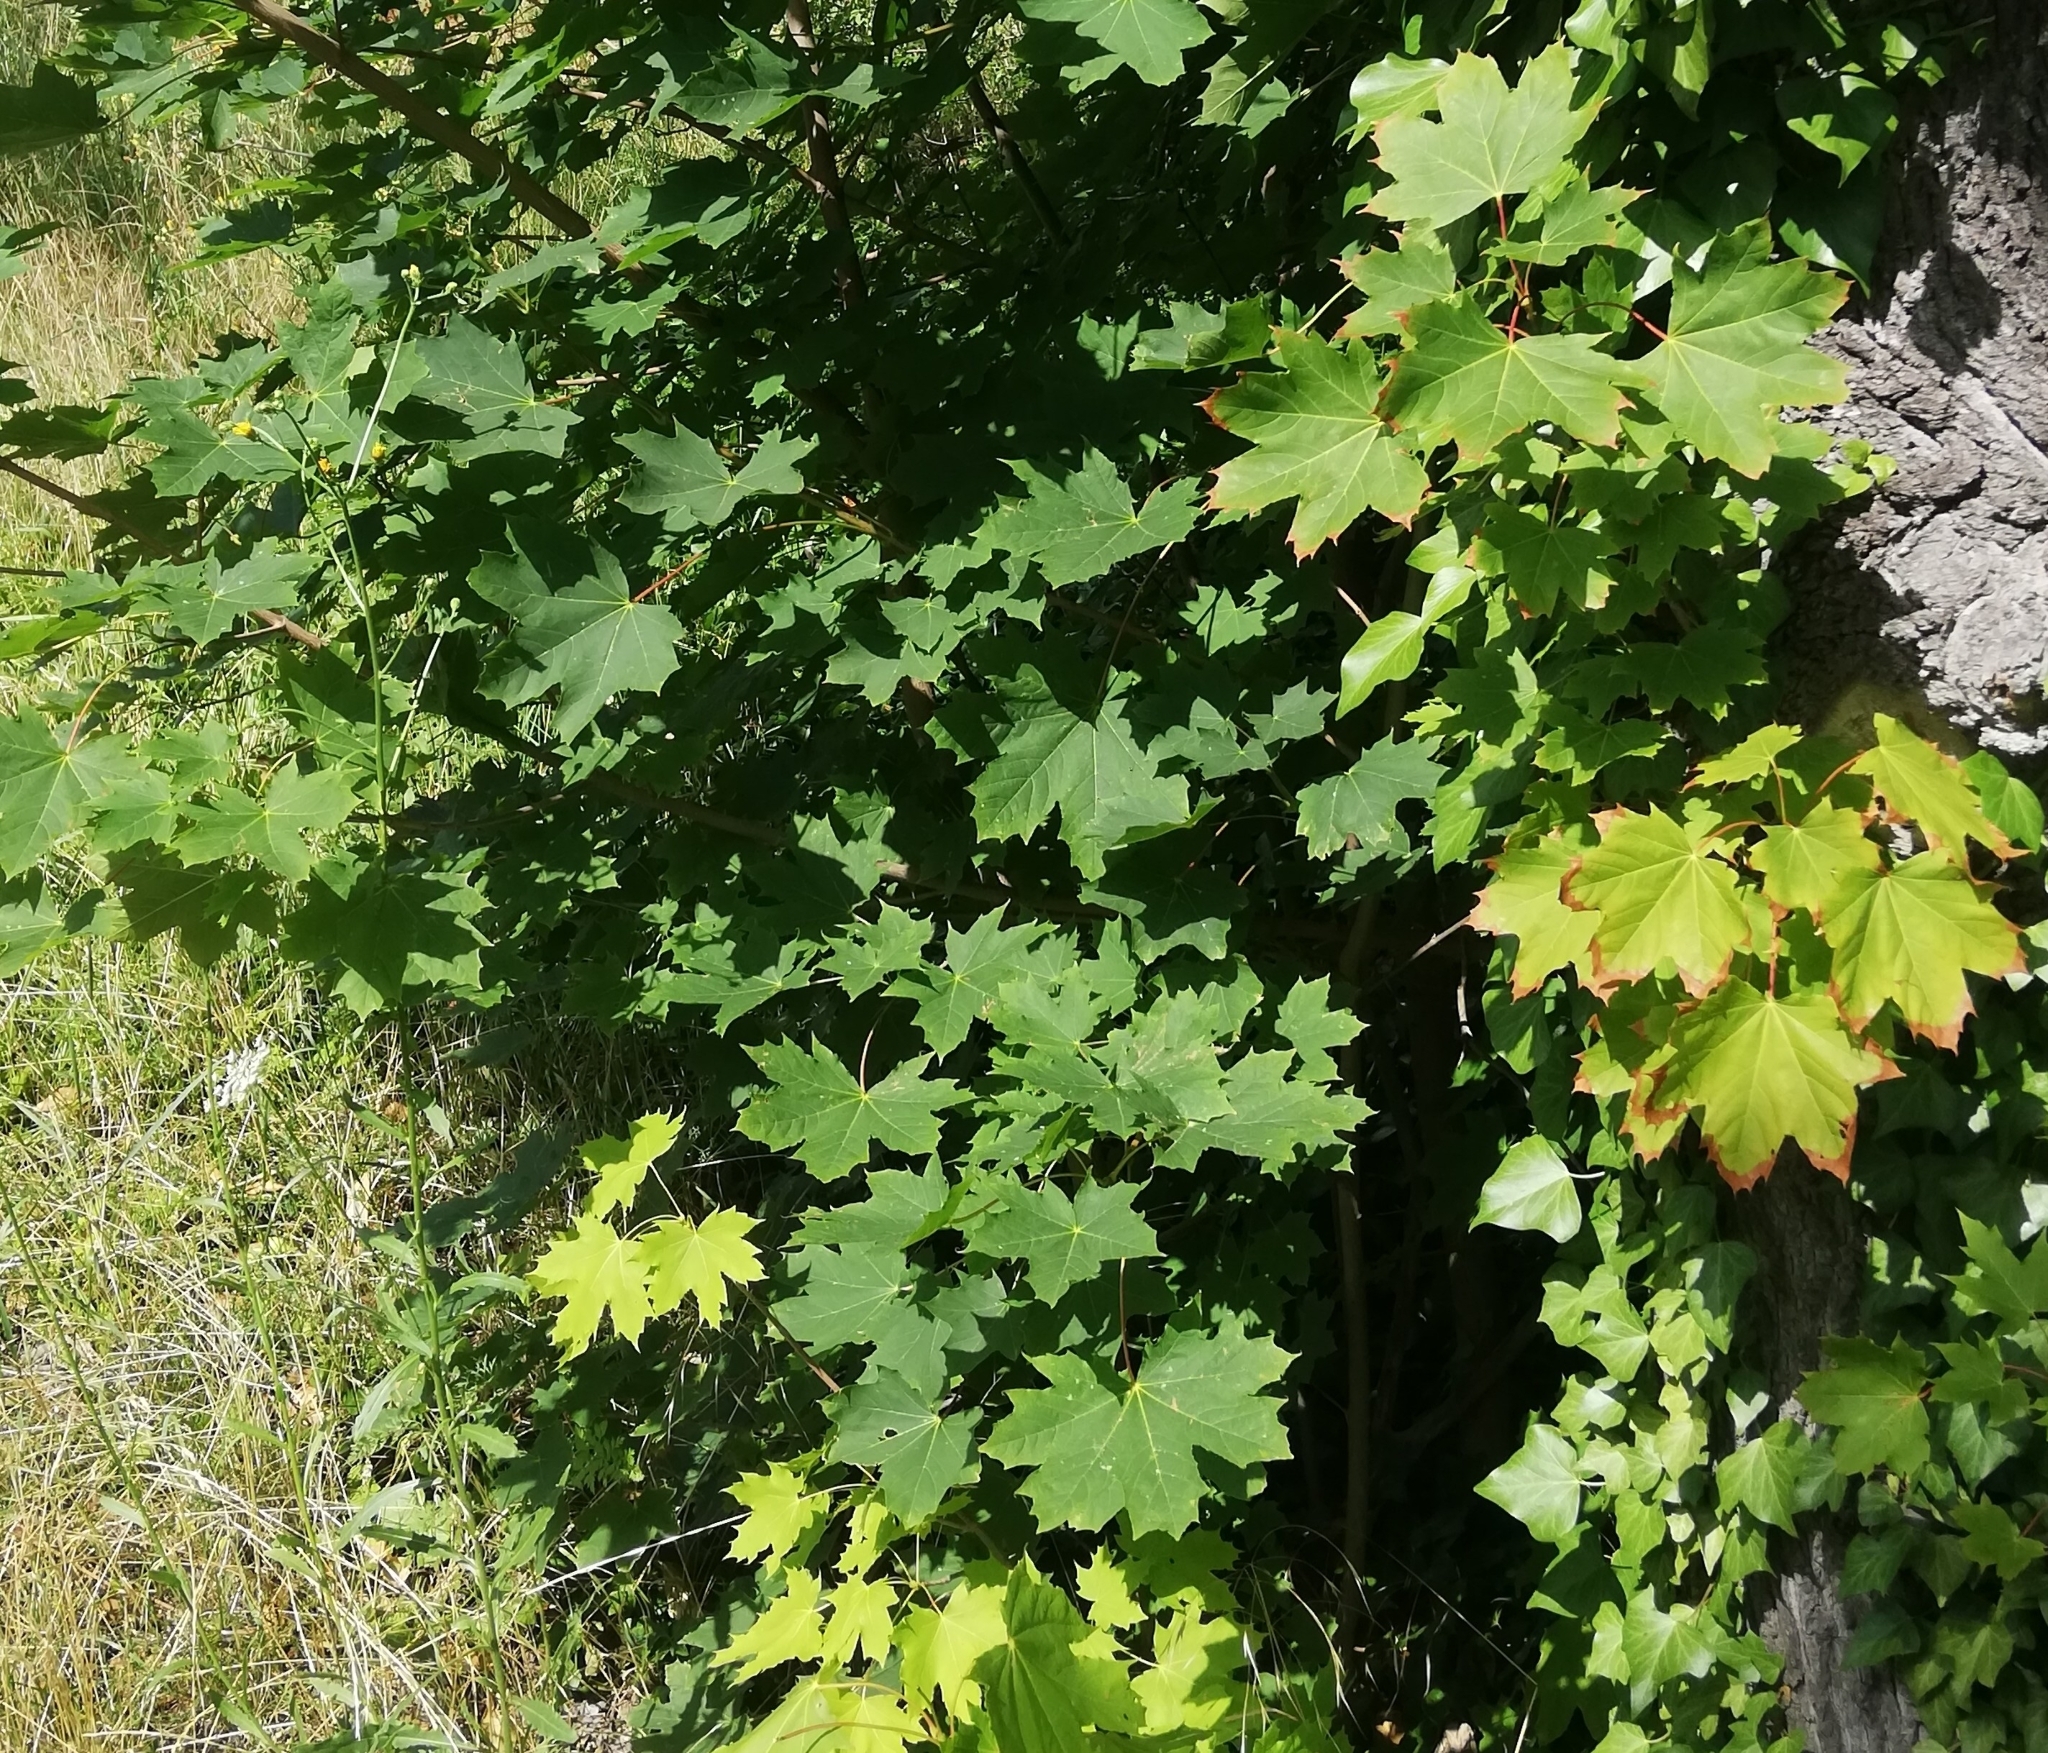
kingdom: Plantae
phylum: Tracheophyta
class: Magnoliopsida
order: Sapindales
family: Sapindaceae
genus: Acer
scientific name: Acer platanoides
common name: Norway maple
